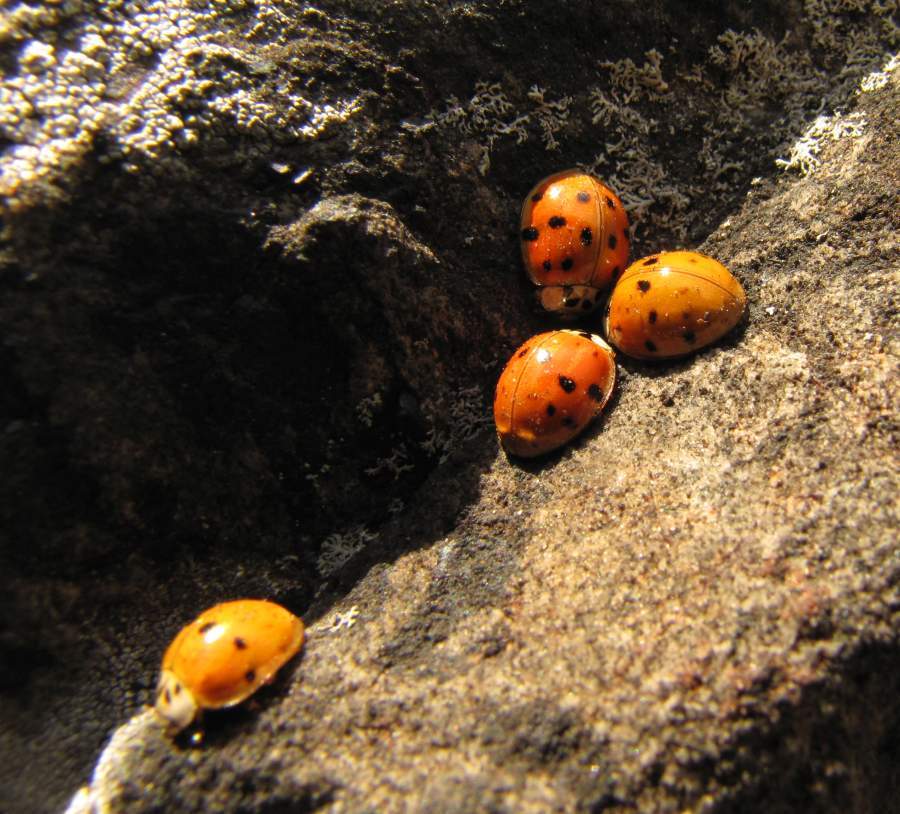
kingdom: Animalia
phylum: Arthropoda
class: Insecta
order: Coleoptera
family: Coccinellidae
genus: Harmonia
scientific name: Harmonia axyridis
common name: Harlequin ladybird
